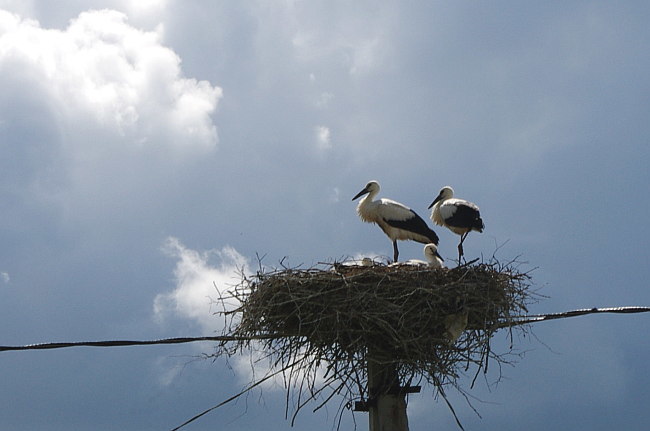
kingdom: Animalia
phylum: Chordata
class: Aves
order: Ciconiiformes
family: Ciconiidae
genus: Ciconia
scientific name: Ciconia ciconia
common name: White stork
